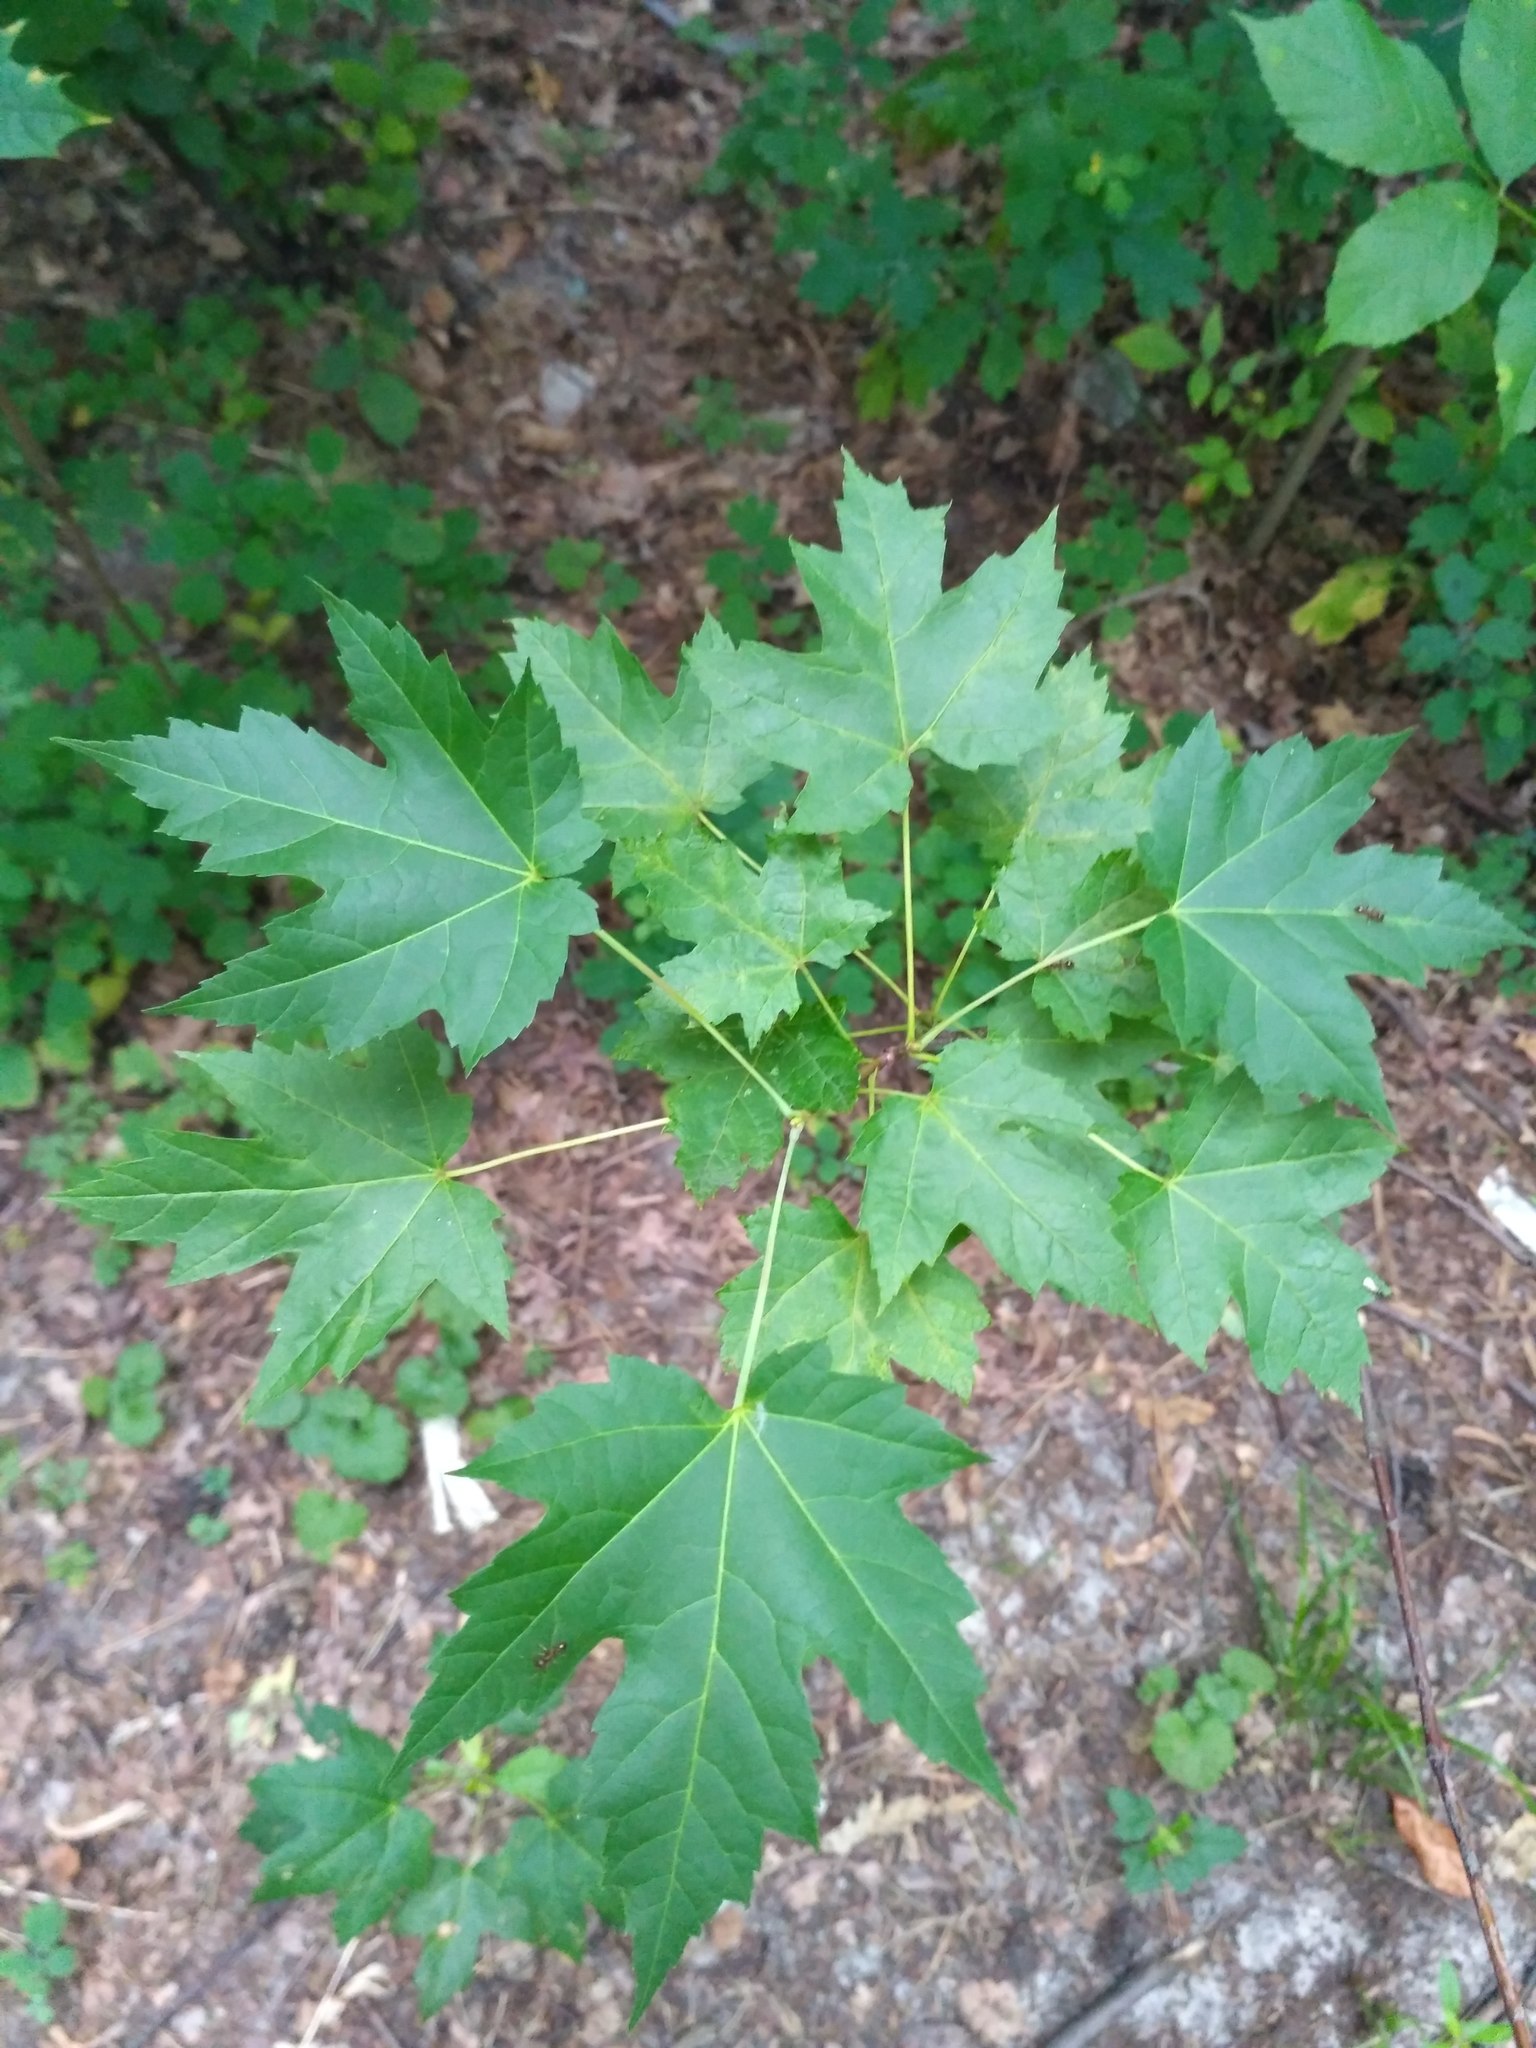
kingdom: Plantae
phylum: Tracheophyta
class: Magnoliopsida
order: Sapindales
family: Sapindaceae
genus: Acer
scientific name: Acer saccharinum
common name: Silver maple
